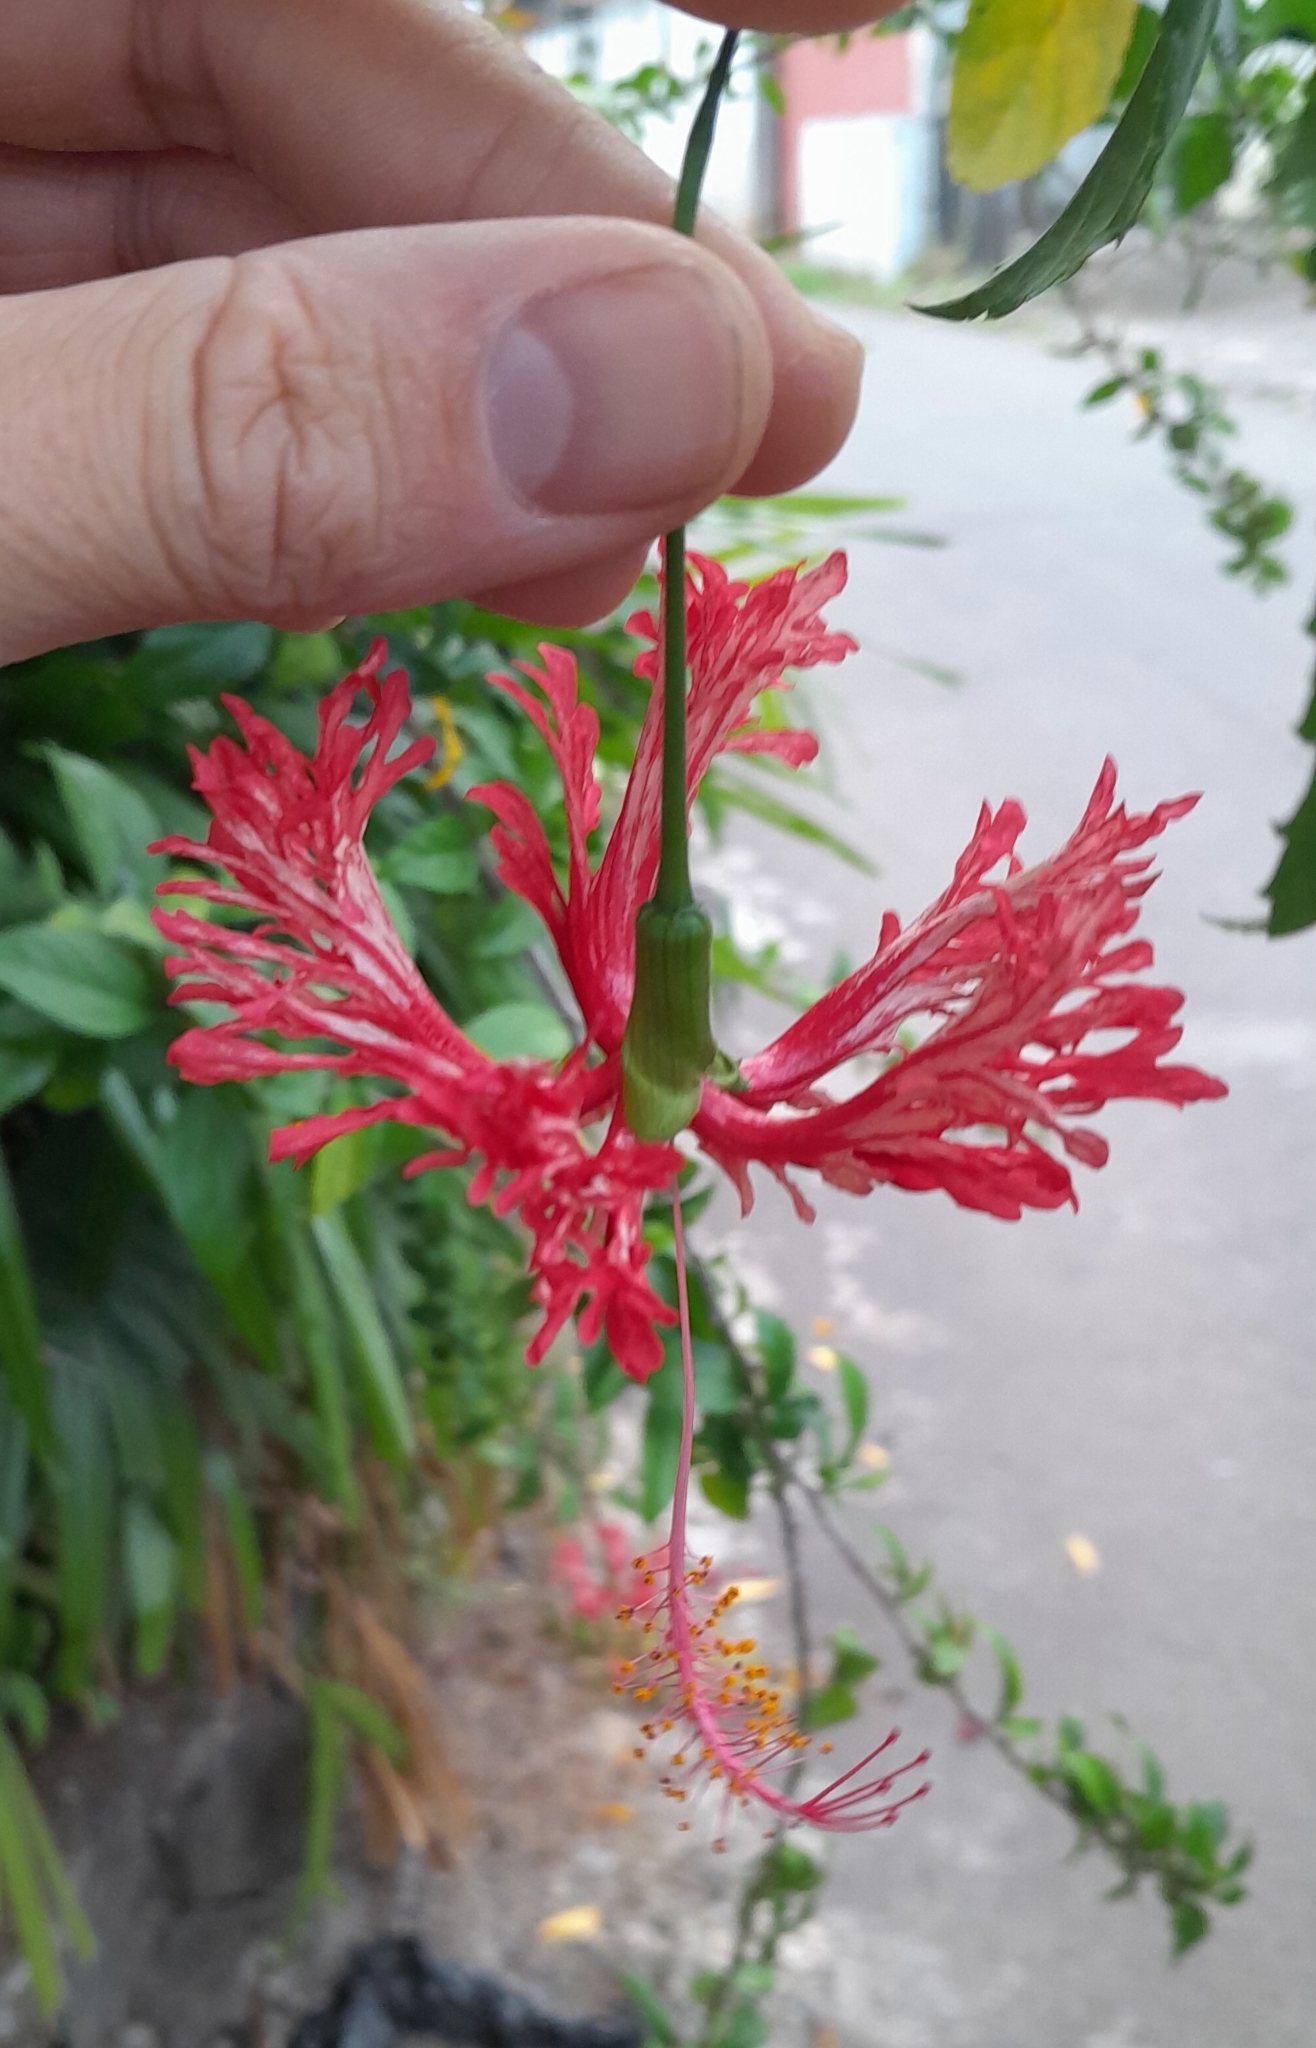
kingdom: Plantae
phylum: Tracheophyta
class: Magnoliopsida
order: Malvales
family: Malvaceae
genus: Hibiscus
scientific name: Hibiscus schizopetalus
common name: Fringed rosemallow
